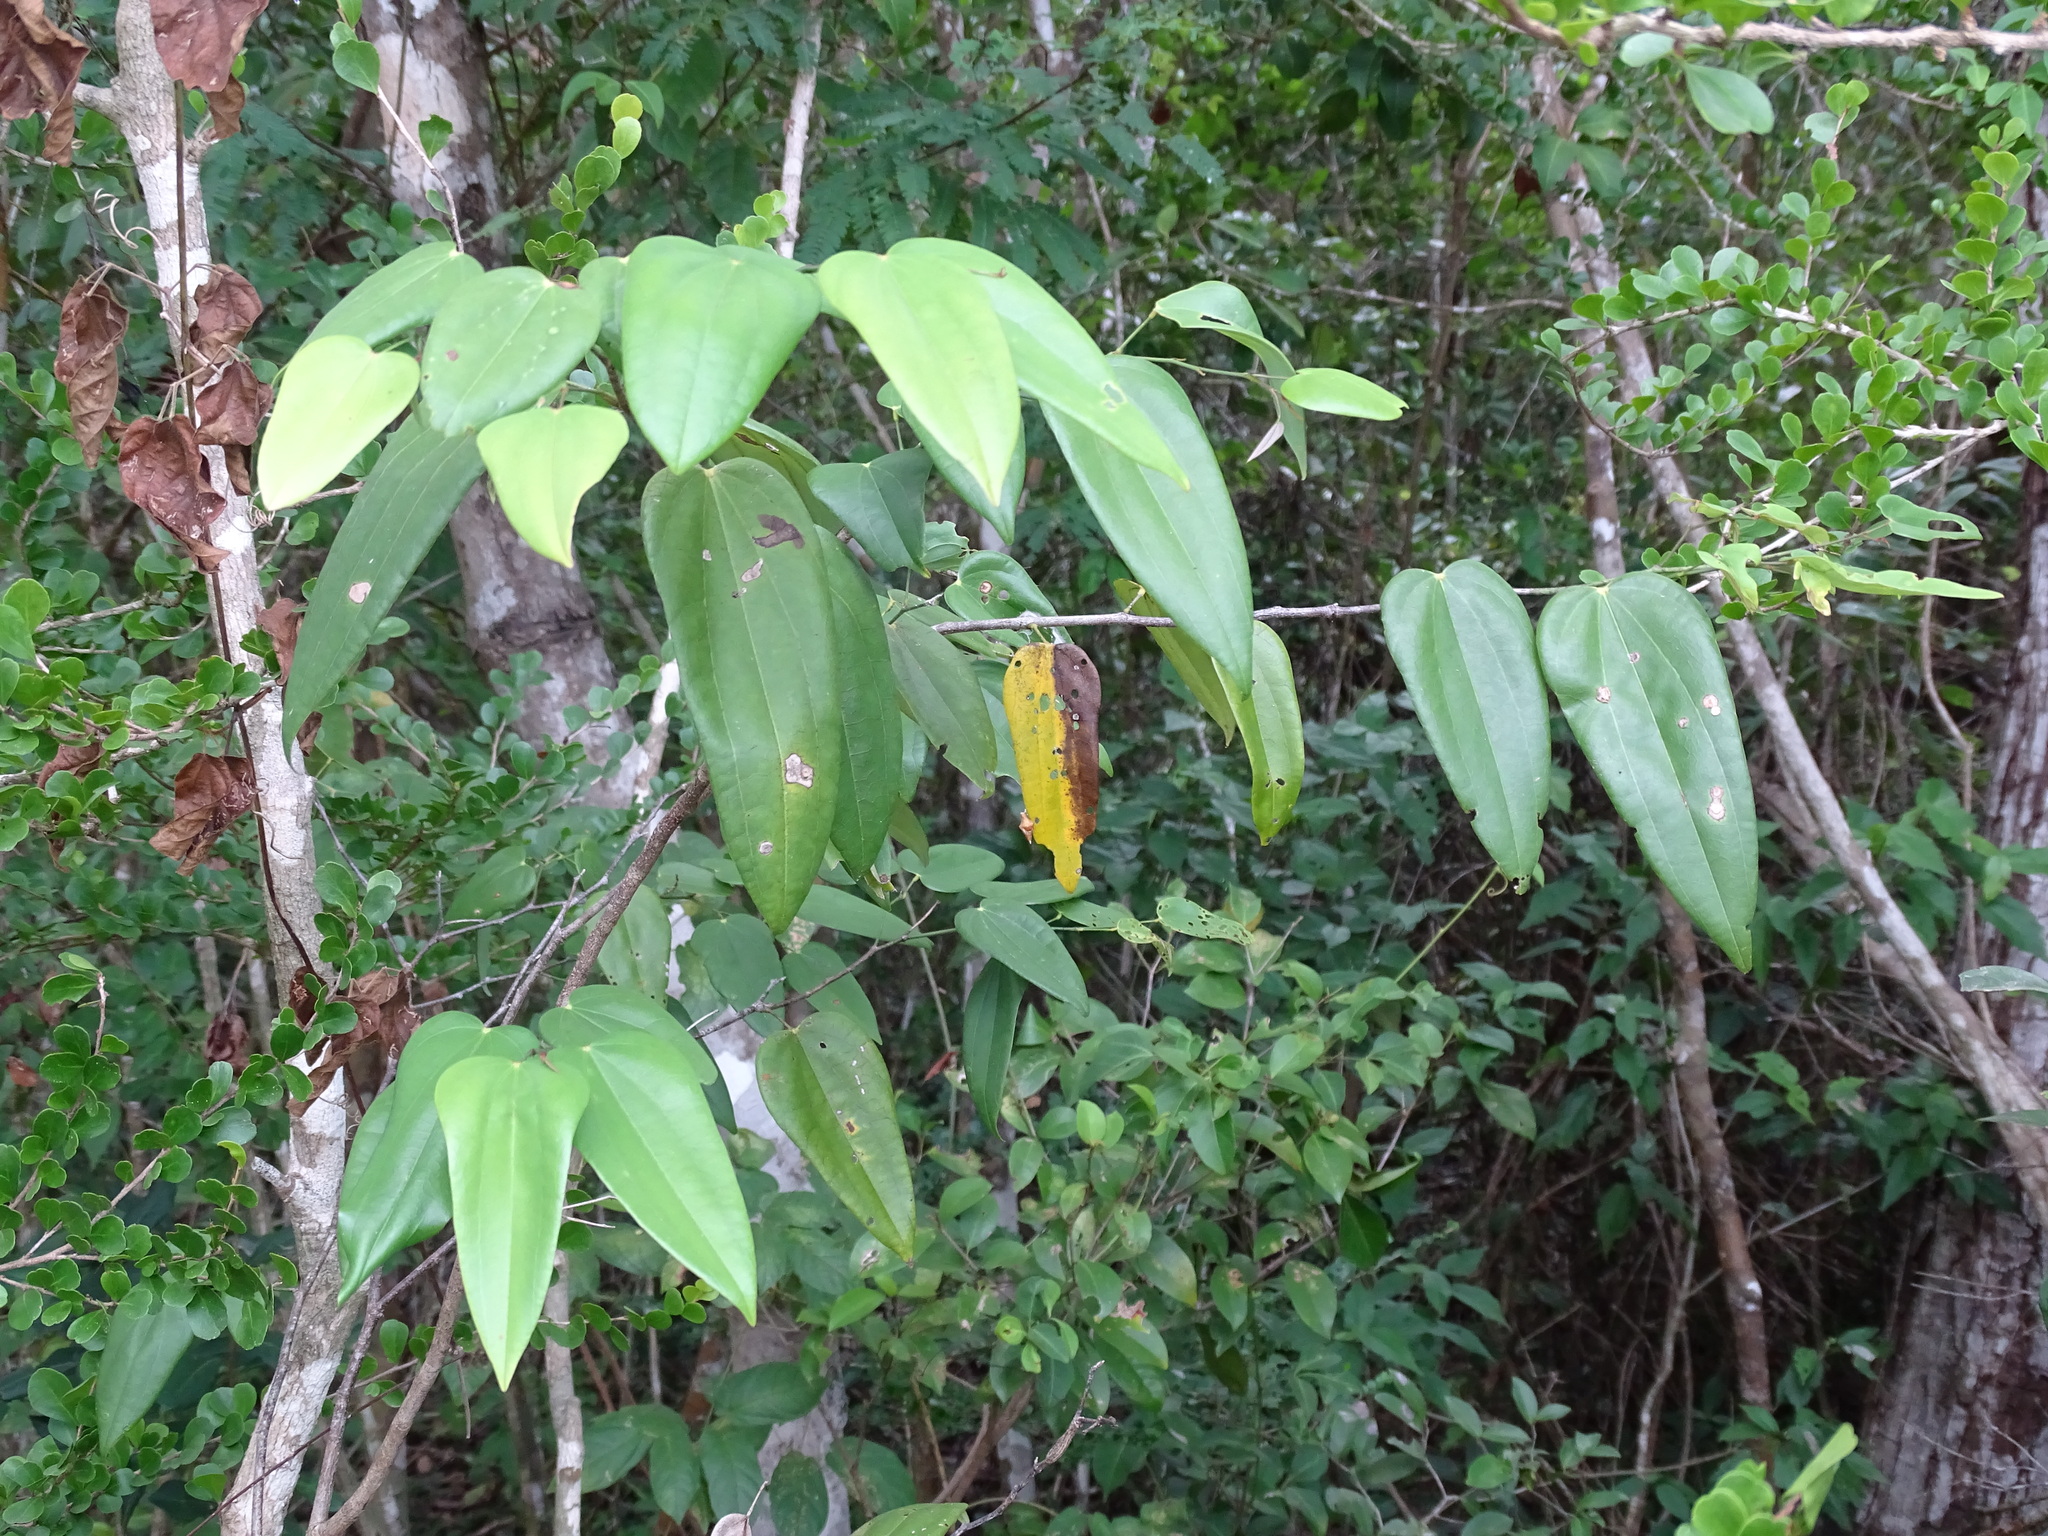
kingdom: Plantae
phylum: Tracheophyta
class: Magnoliopsida
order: Fabales
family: Fabaceae
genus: Bauhinia
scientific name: Bauhinia jenningsii
